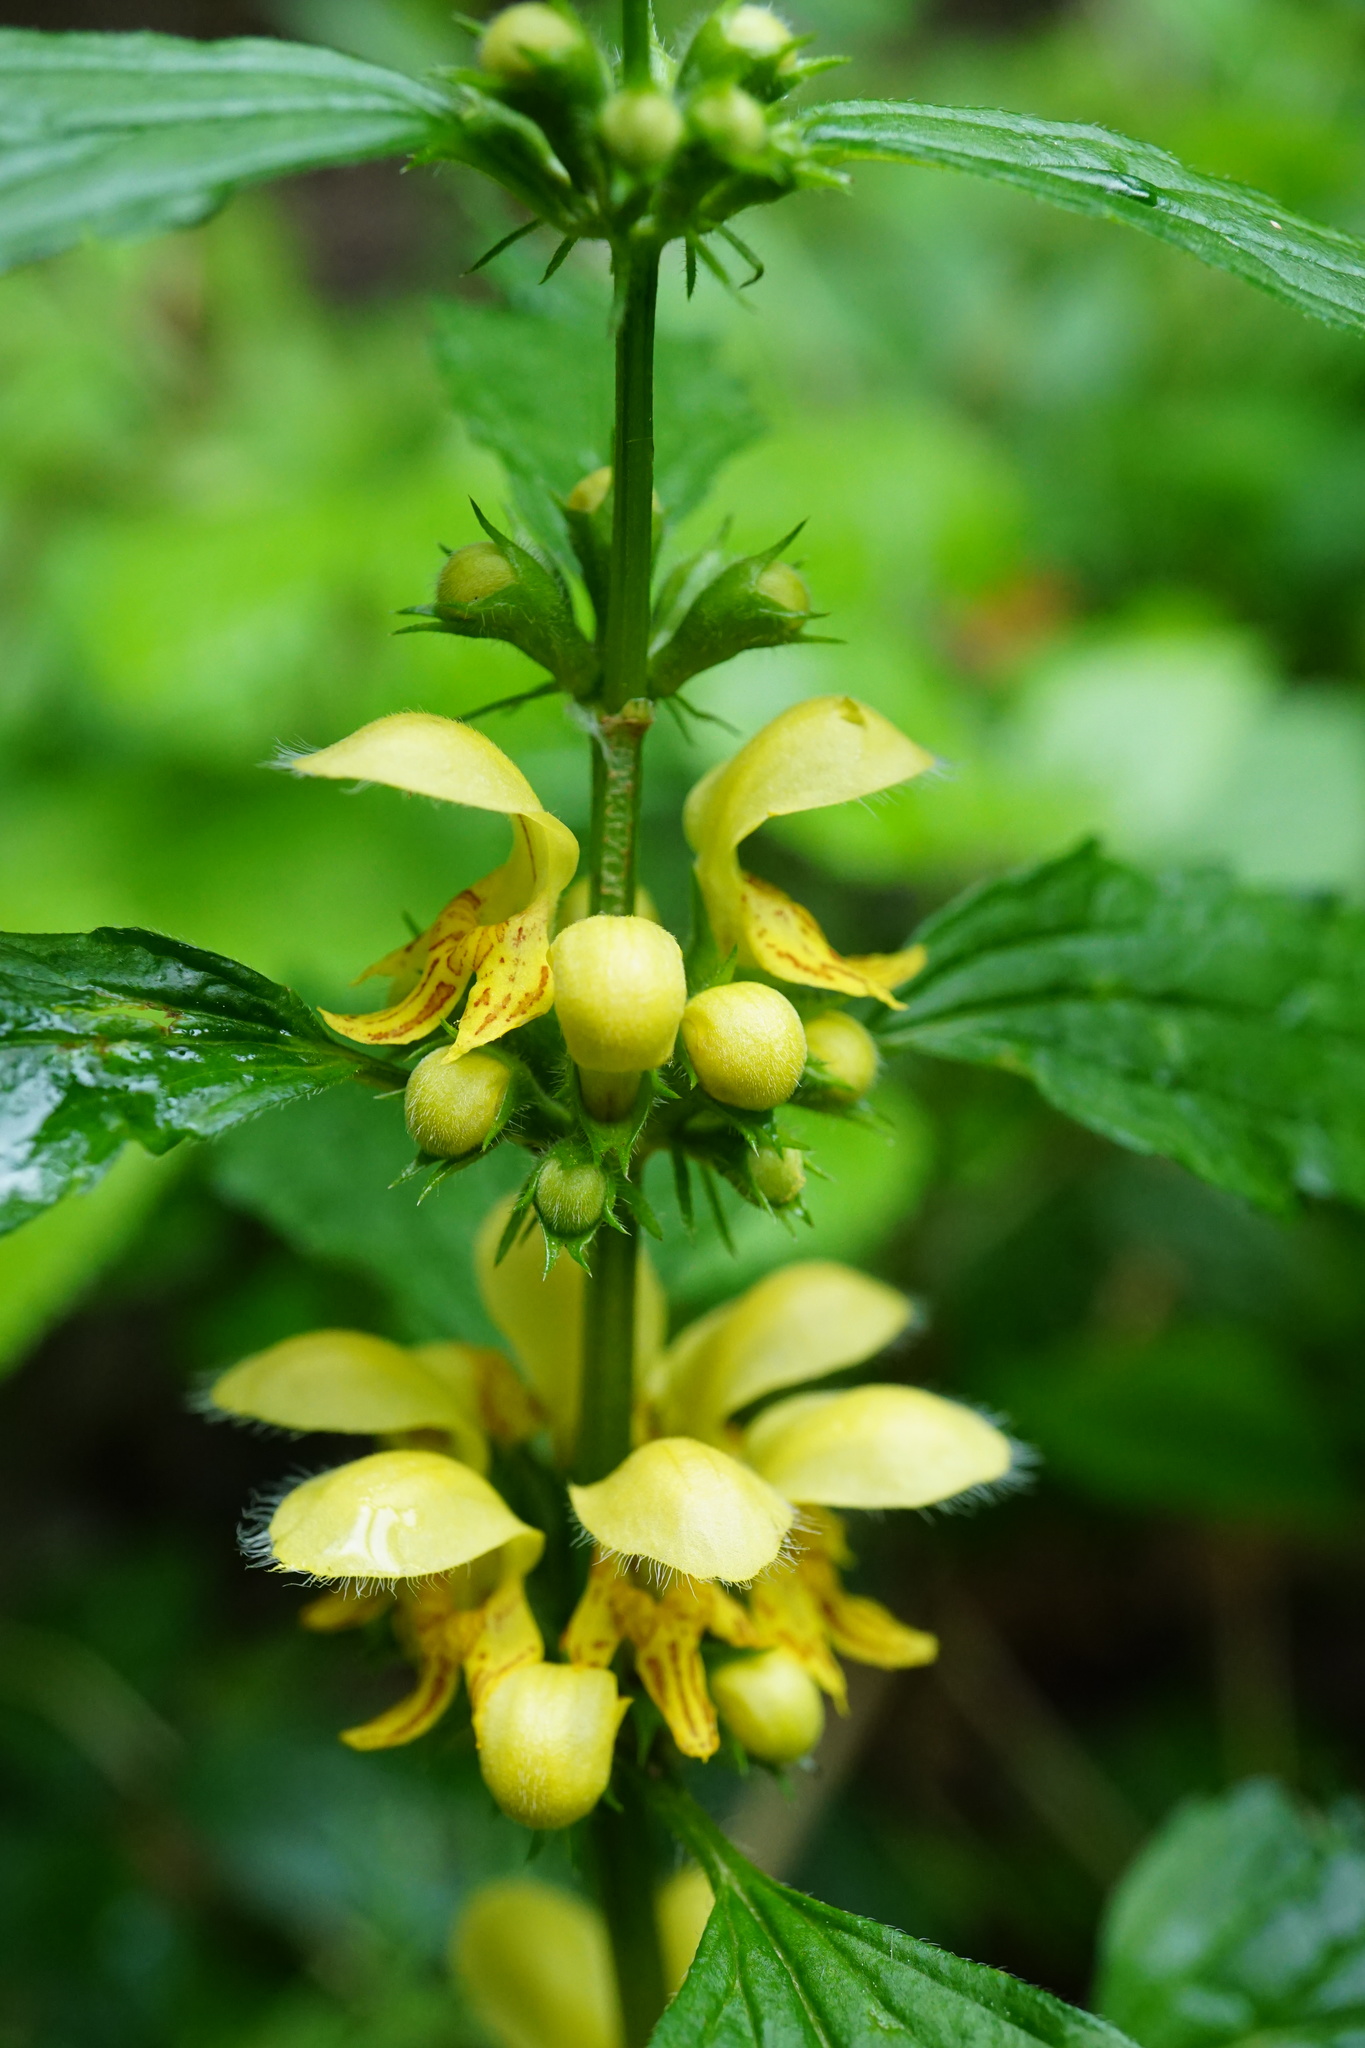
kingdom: Plantae
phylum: Tracheophyta
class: Magnoliopsida
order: Lamiales
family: Lamiaceae
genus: Lamium
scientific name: Lamium galeobdolon
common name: Yellow archangel
